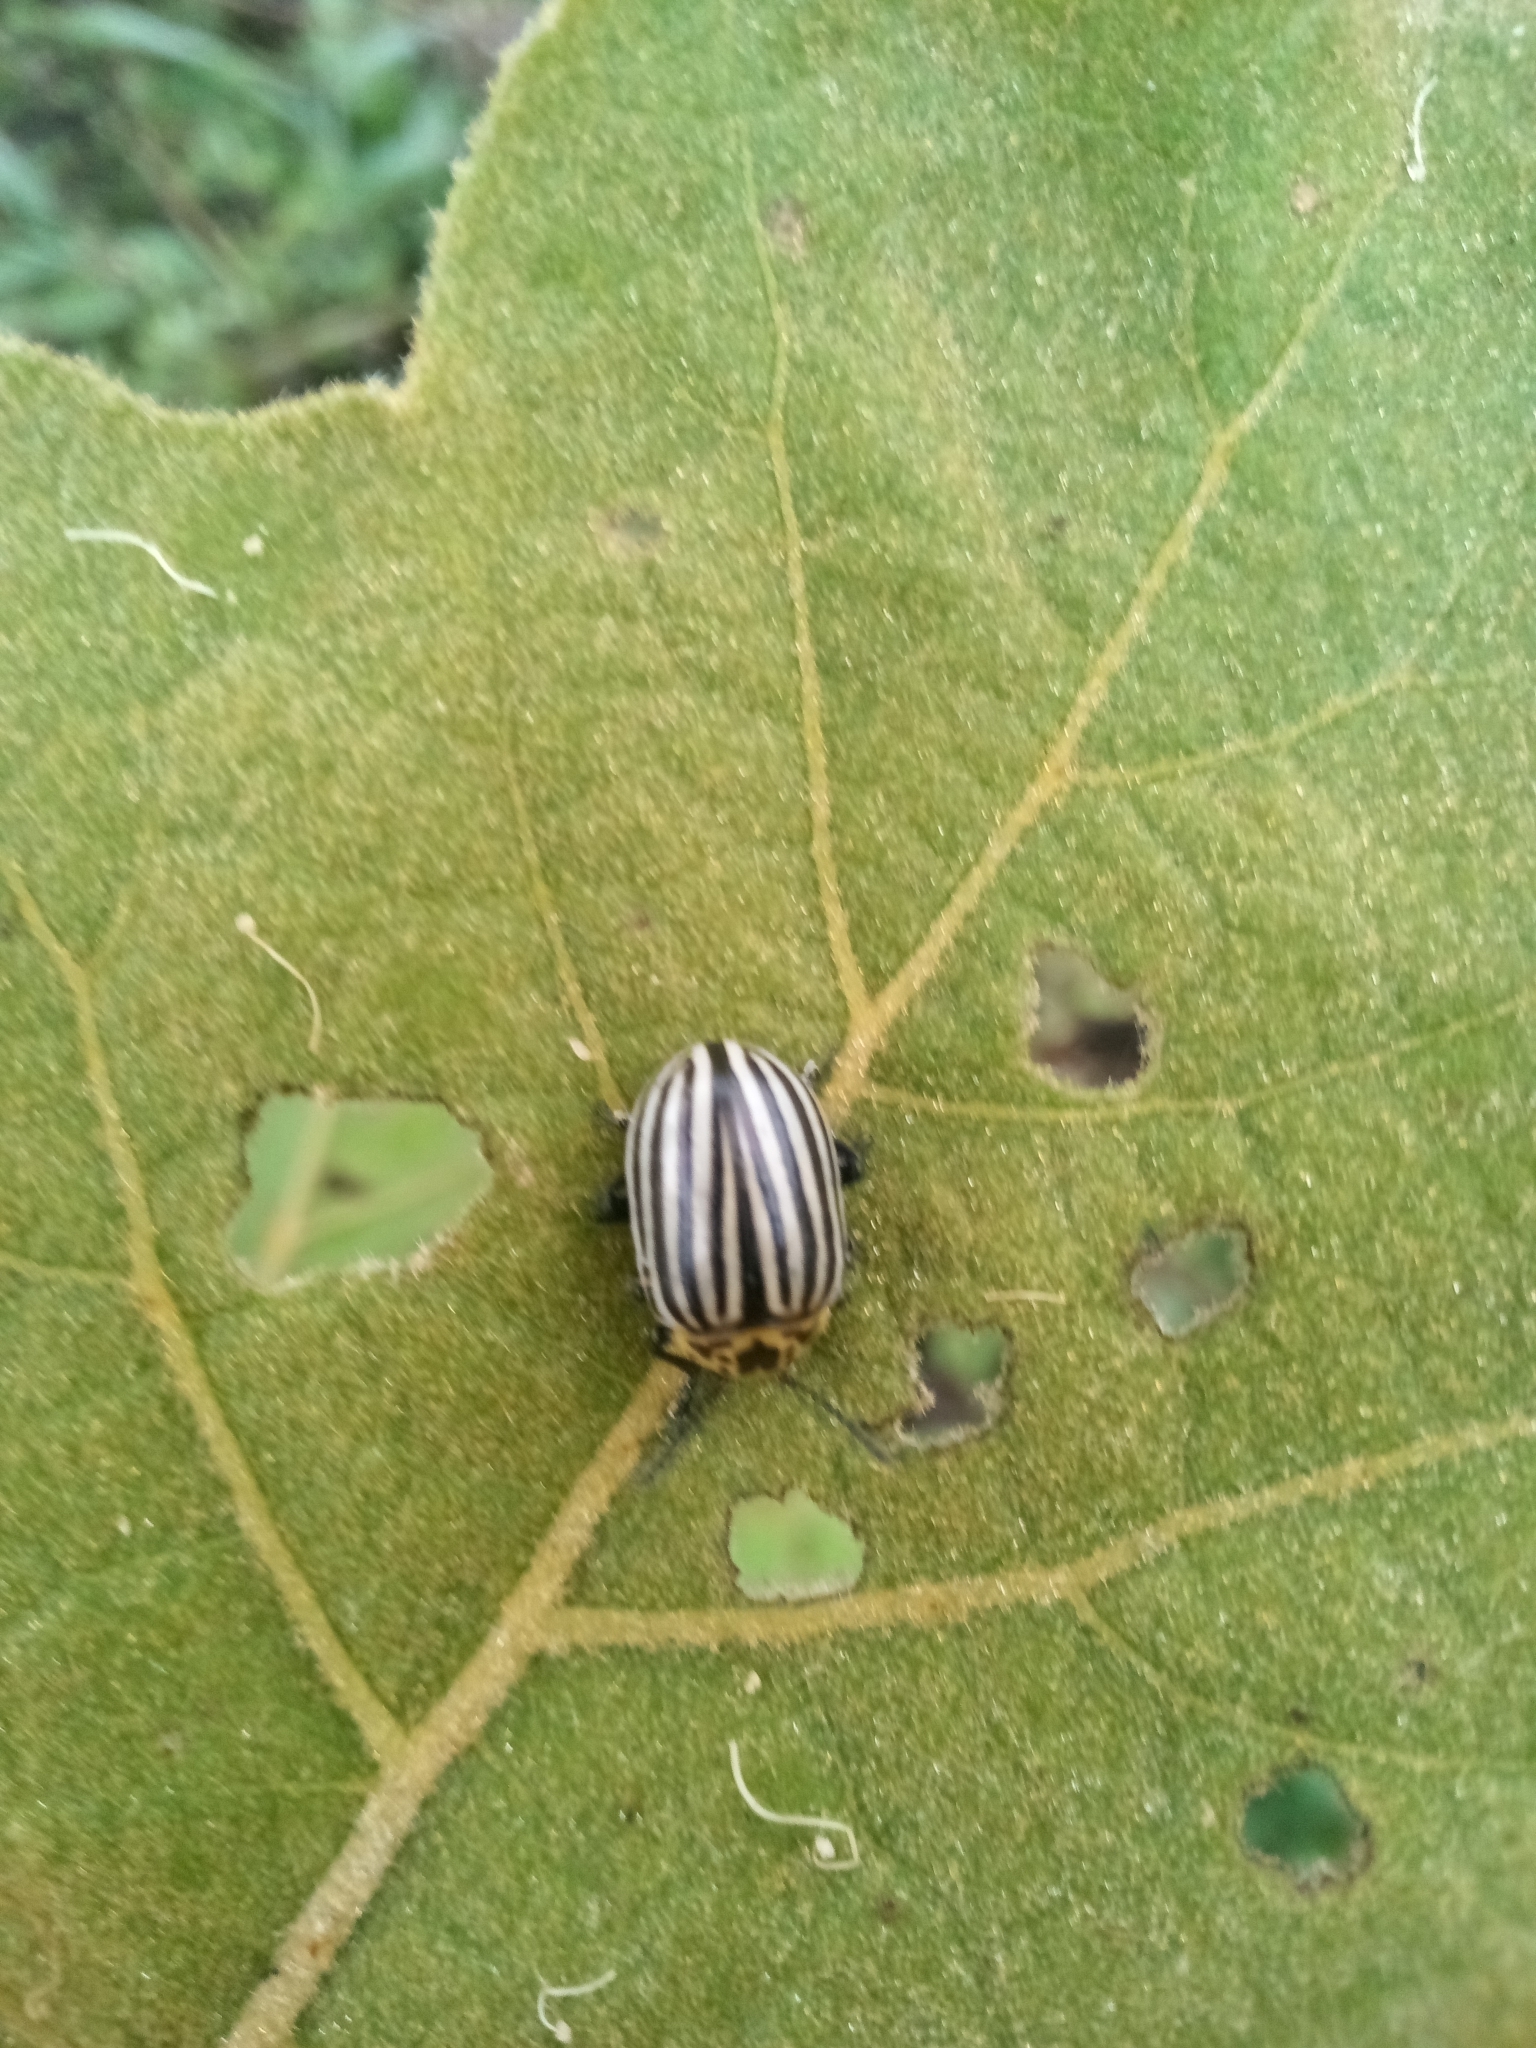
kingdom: Animalia
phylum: Arthropoda
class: Insecta
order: Coleoptera
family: Chrysomelidae
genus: Leptinotarsa
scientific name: Leptinotarsa
